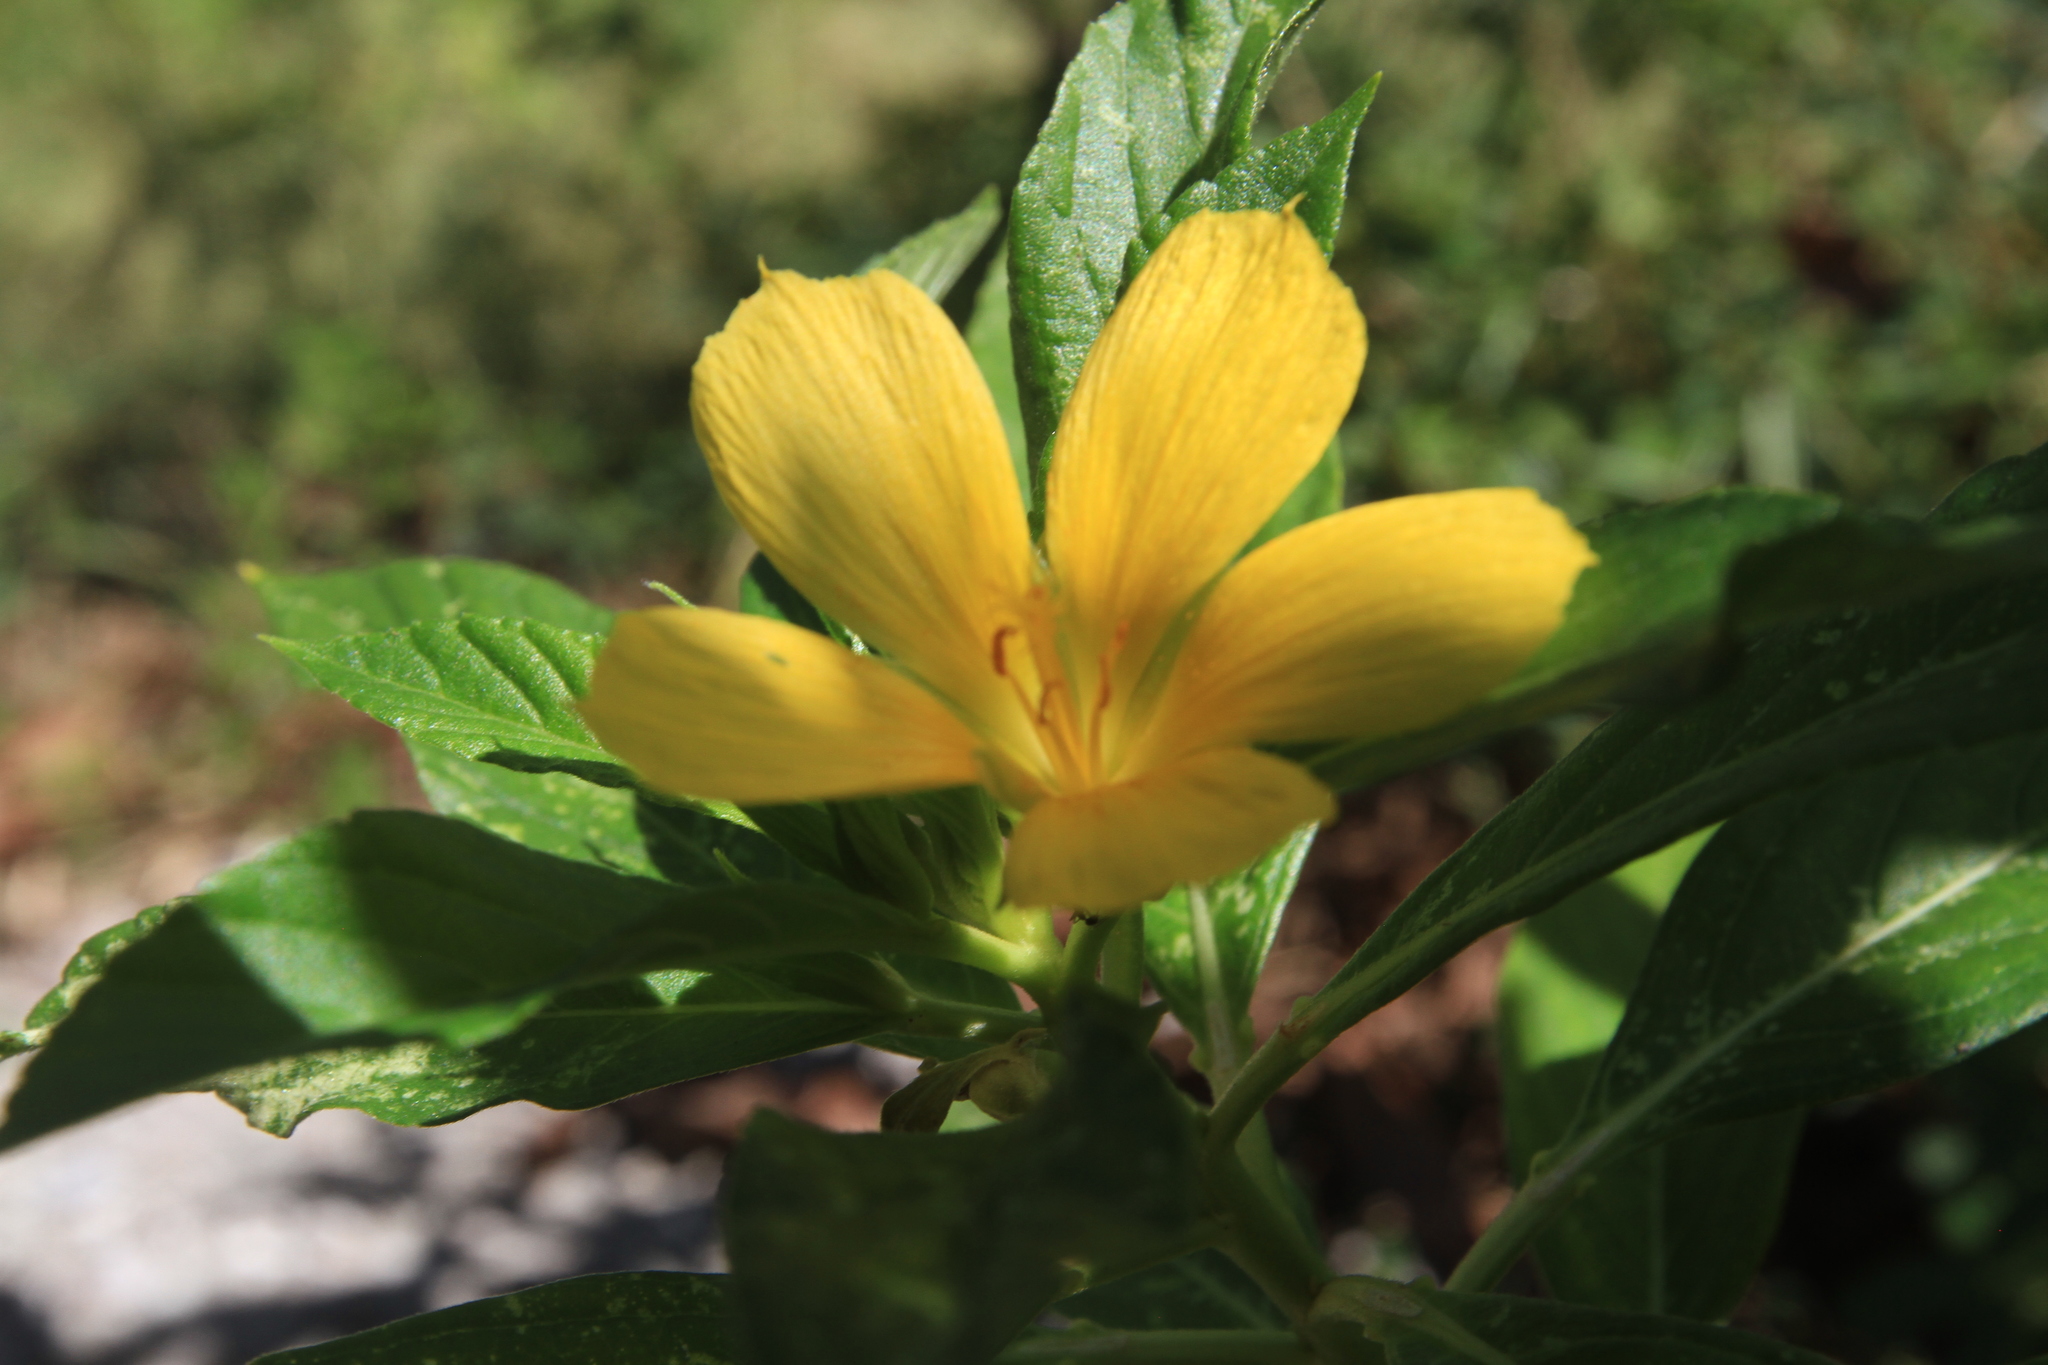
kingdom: Plantae
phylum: Tracheophyta
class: Magnoliopsida
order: Malpighiales
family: Turneraceae
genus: Turnera
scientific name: Turnera ulmifolia
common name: Ramgoat dashalong
